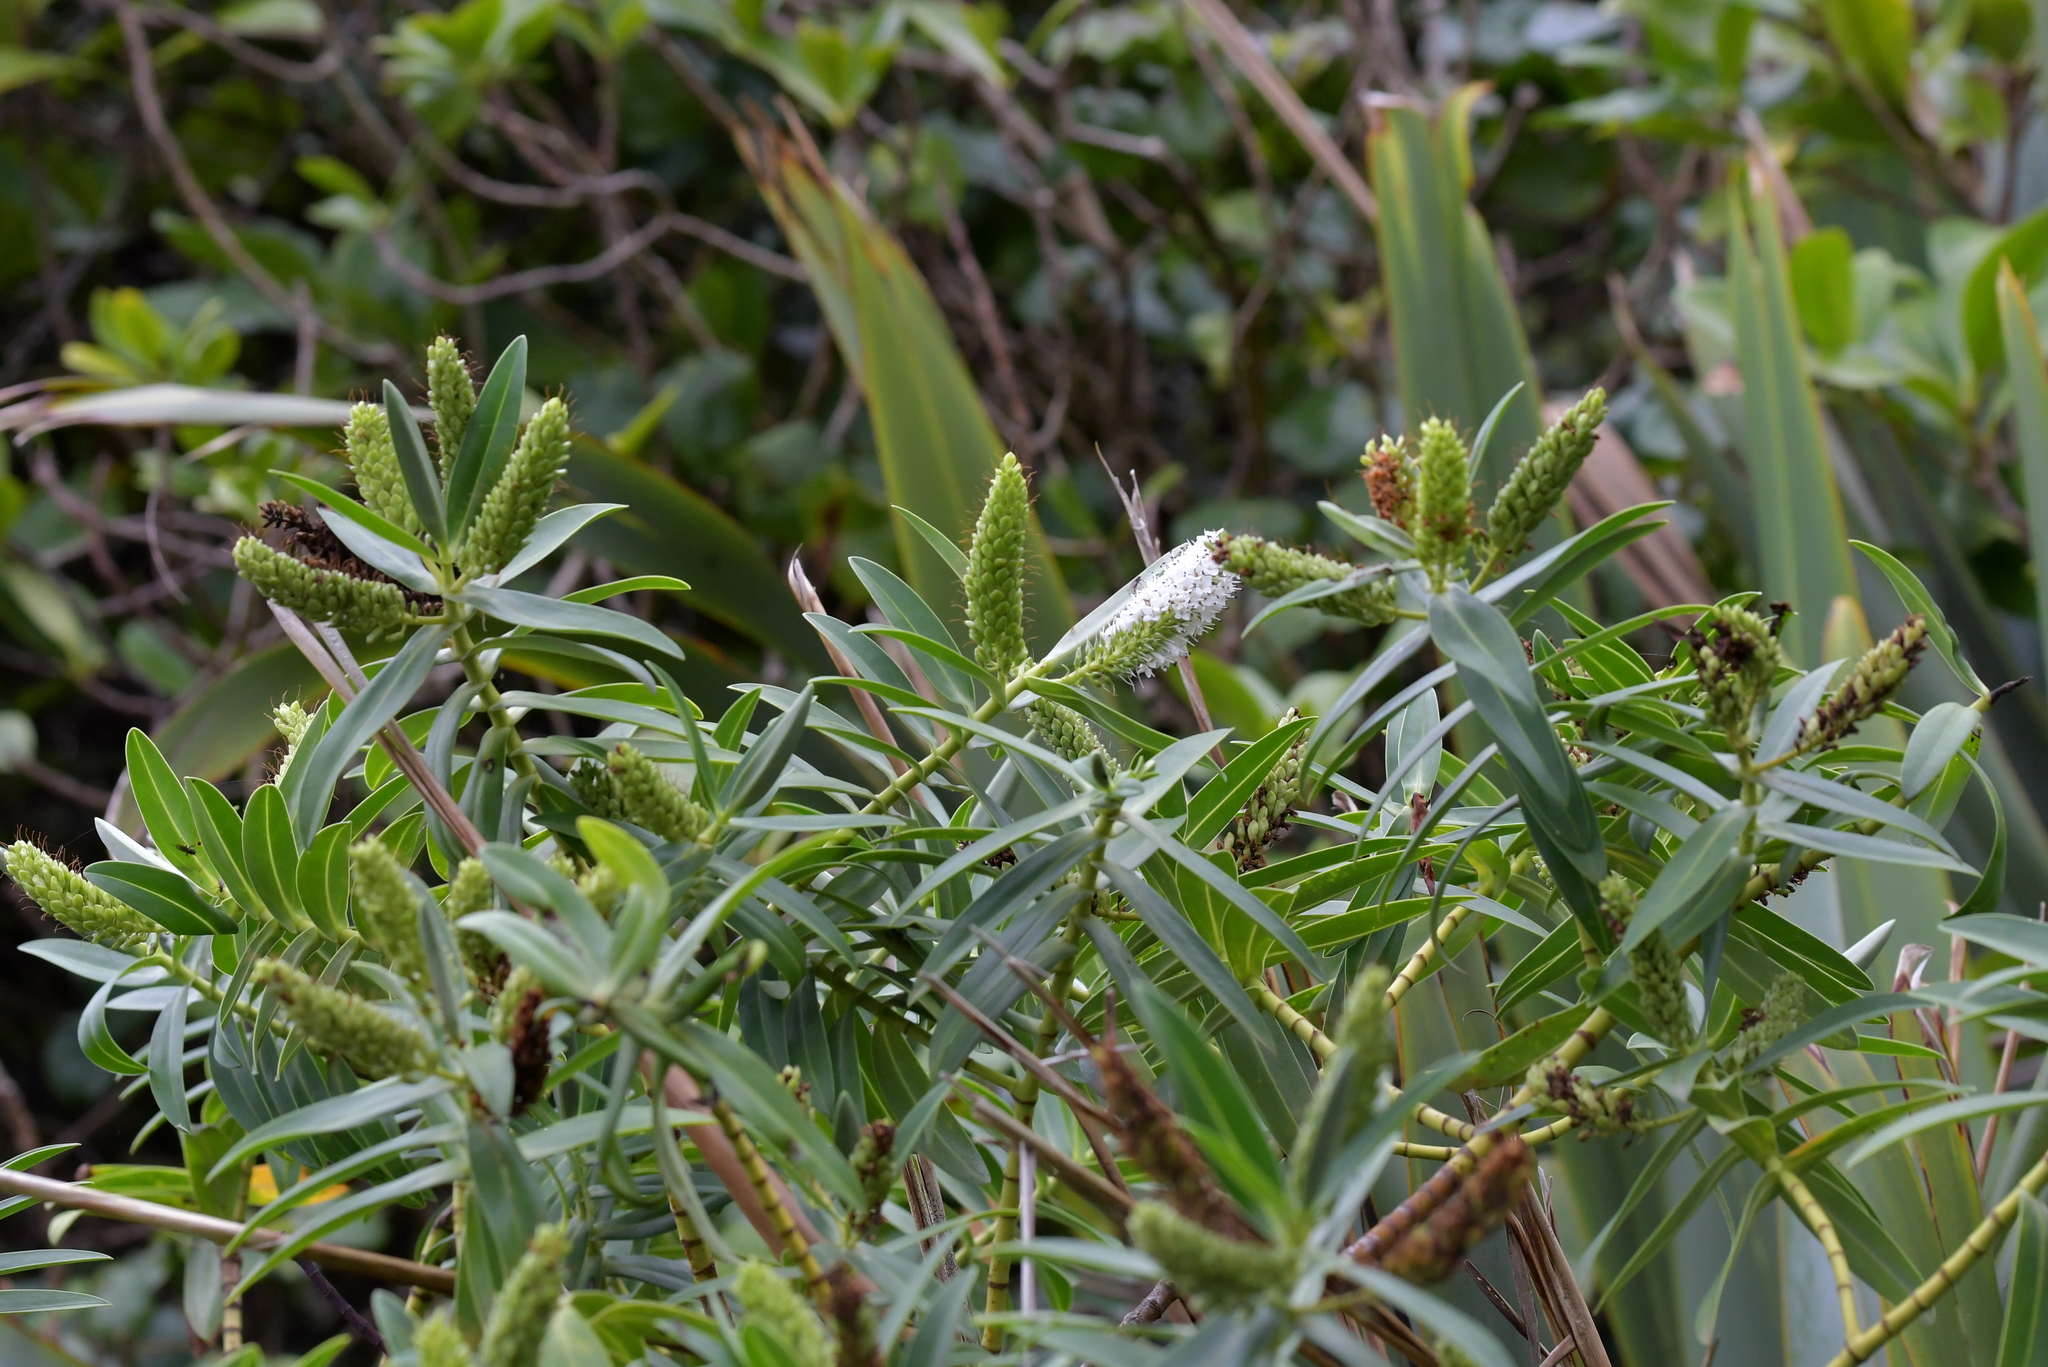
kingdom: Plantae
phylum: Tracheophyta
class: Magnoliopsida
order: Lamiales
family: Plantaginaceae
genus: Veronica
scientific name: Veronica barkeri
